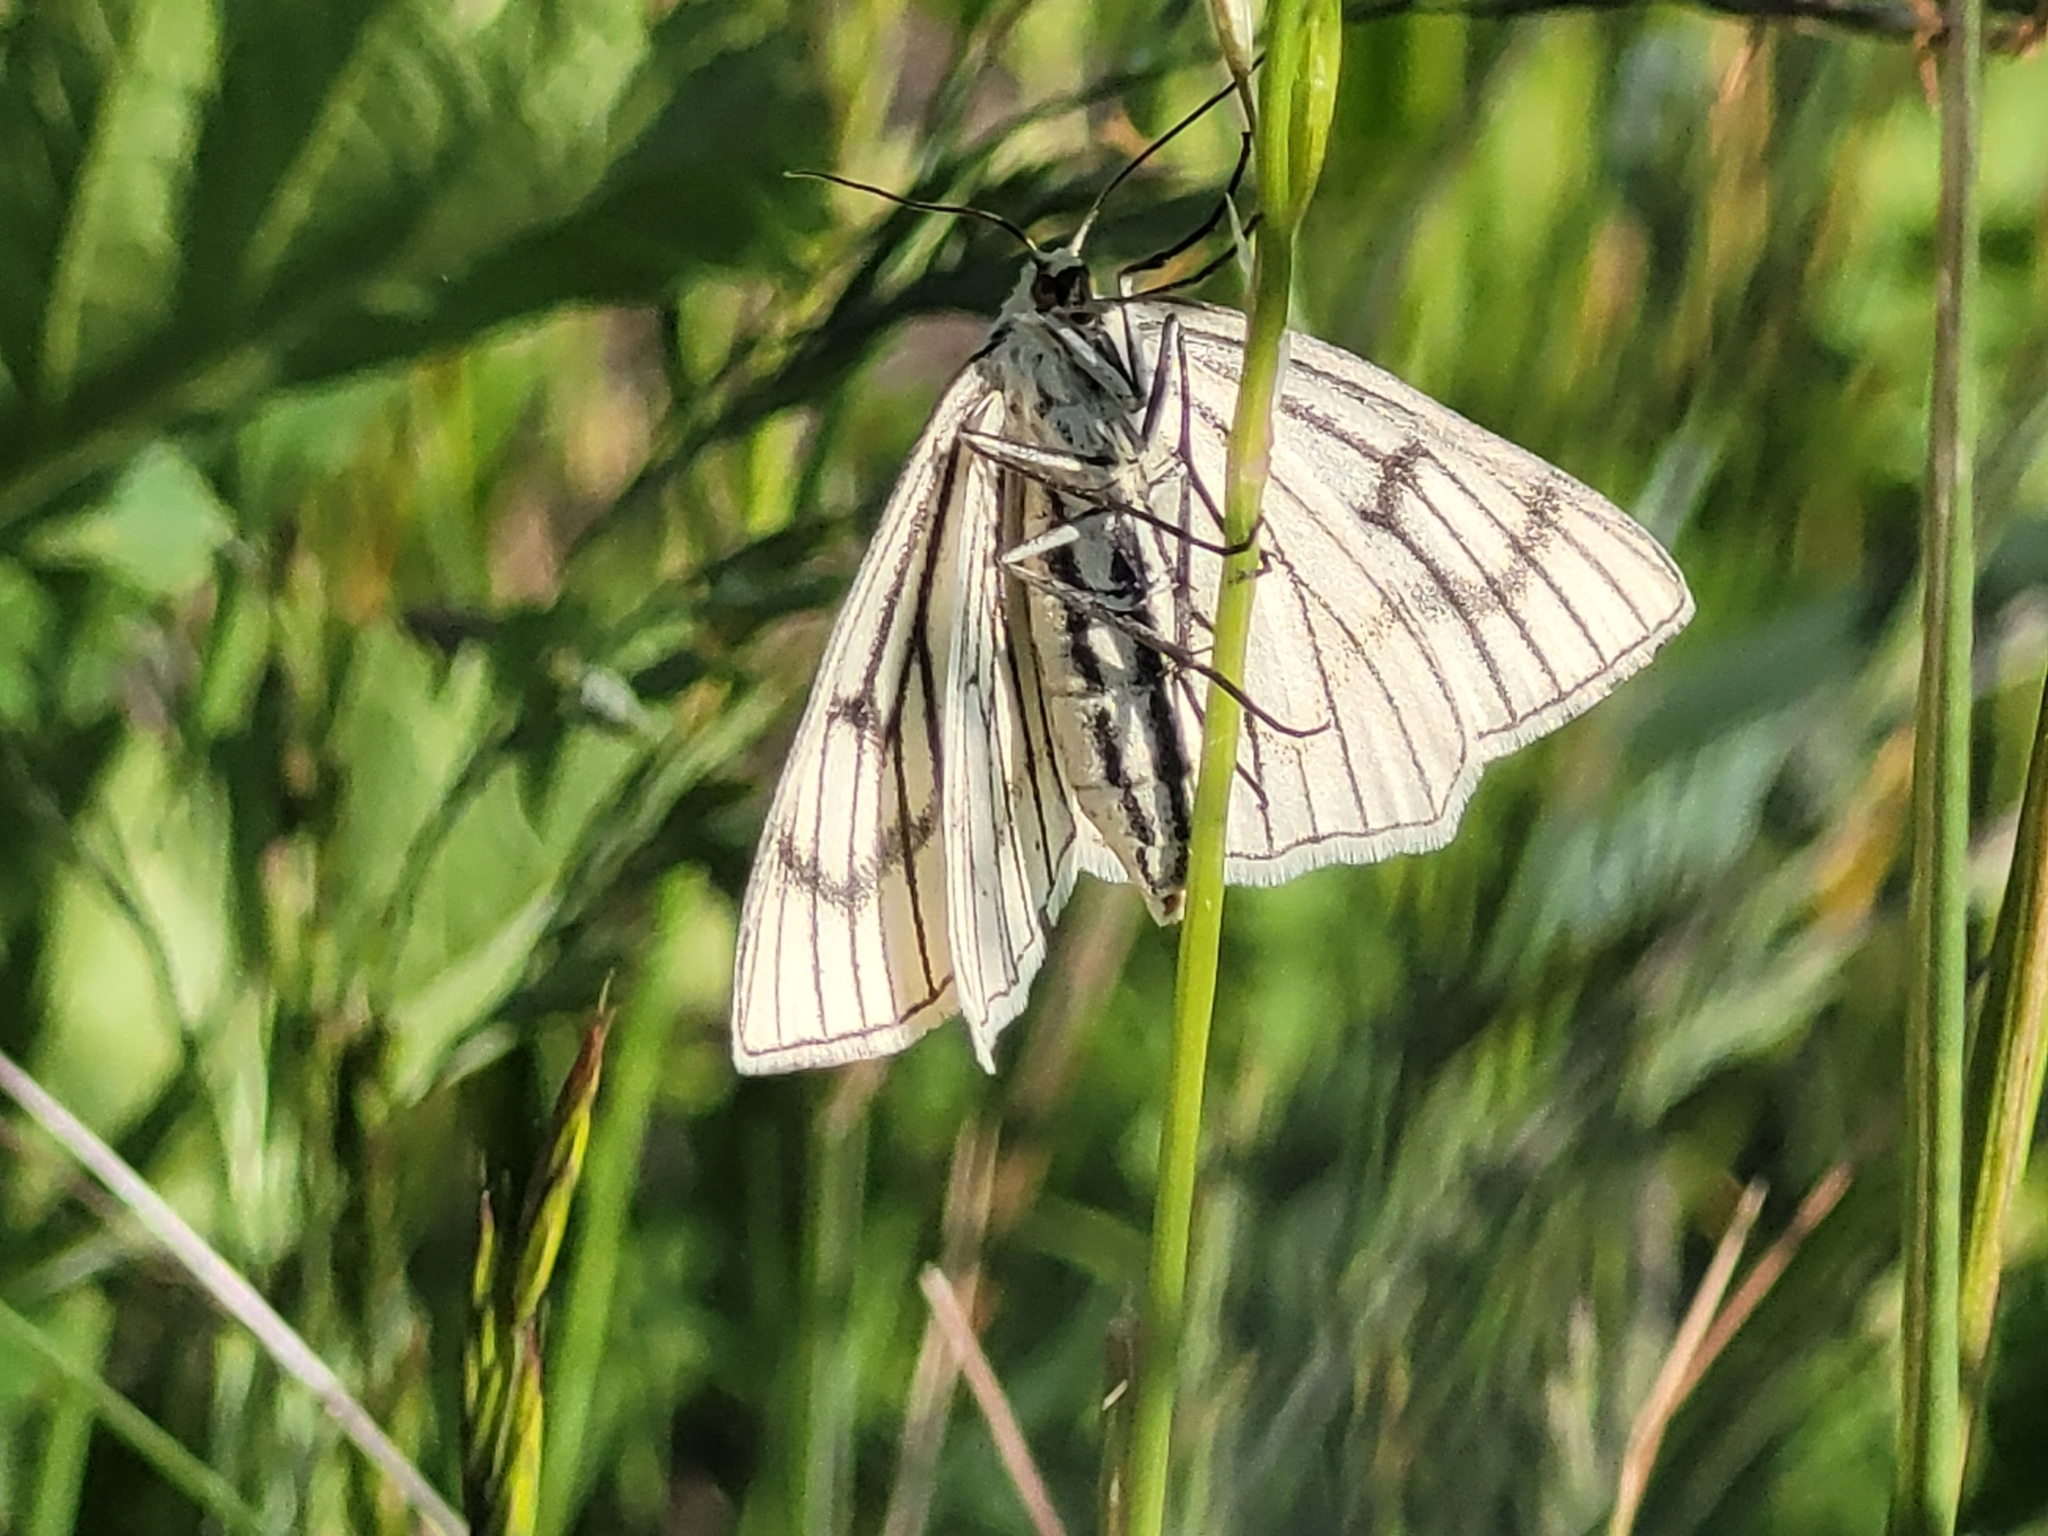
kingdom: Animalia
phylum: Arthropoda
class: Insecta
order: Lepidoptera
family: Geometridae
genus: Siona
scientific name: Siona lineata
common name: Black-veined moth
